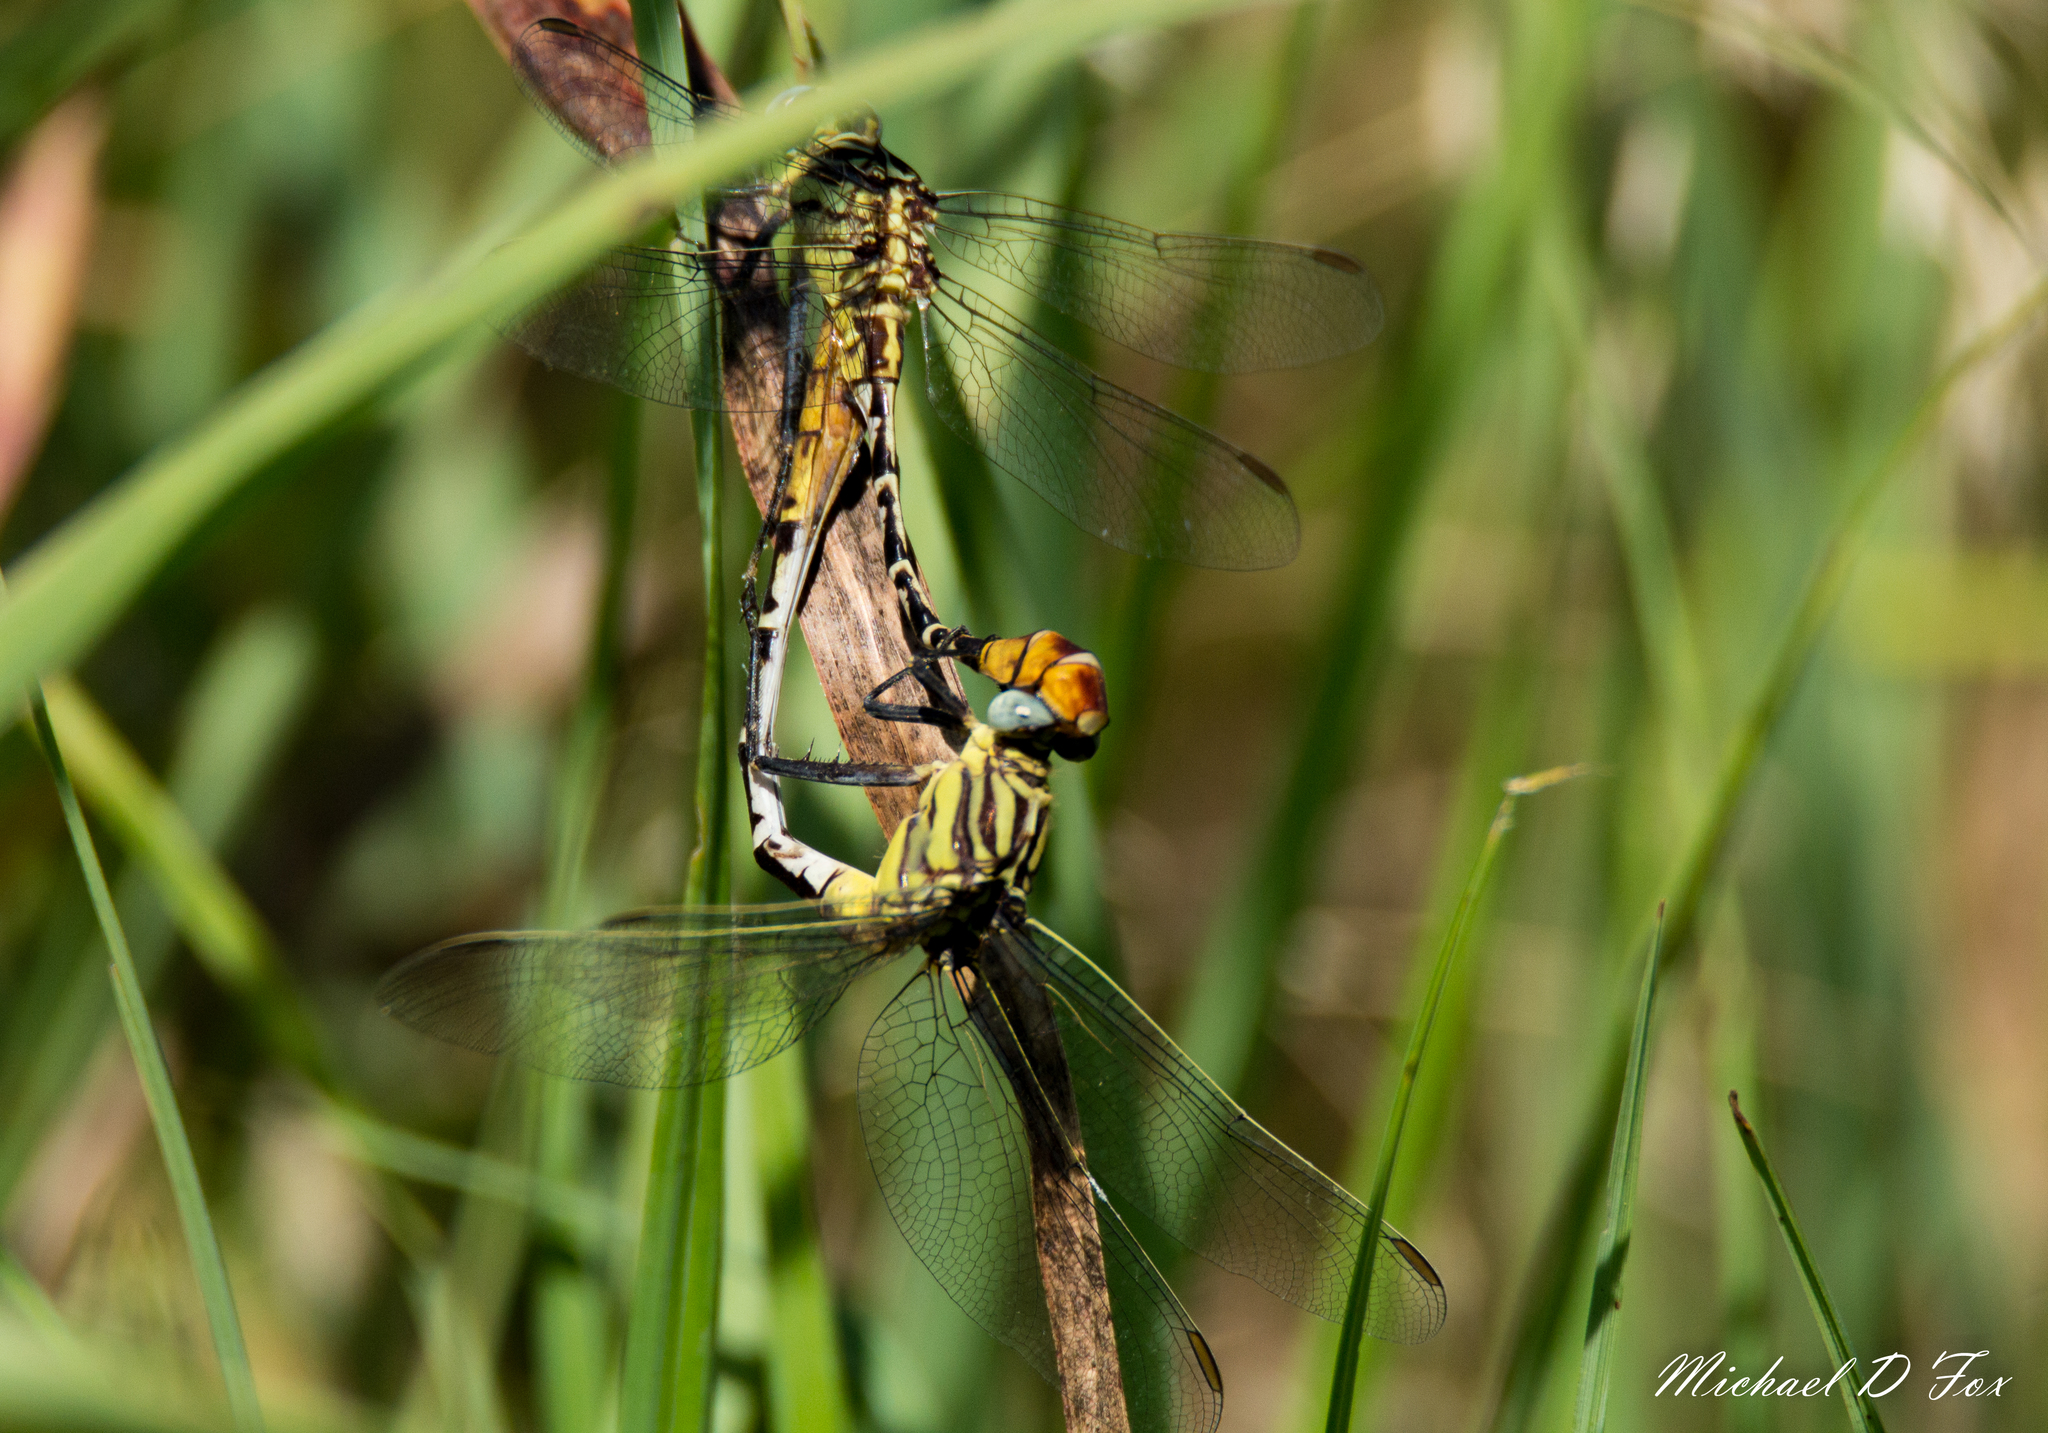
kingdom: Animalia
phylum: Arthropoda
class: Insecta
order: Odonata
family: Gomphidae
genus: Dromogomphus
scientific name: Dromogomphus spoliatus
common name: Flag-tailed spinyleg
